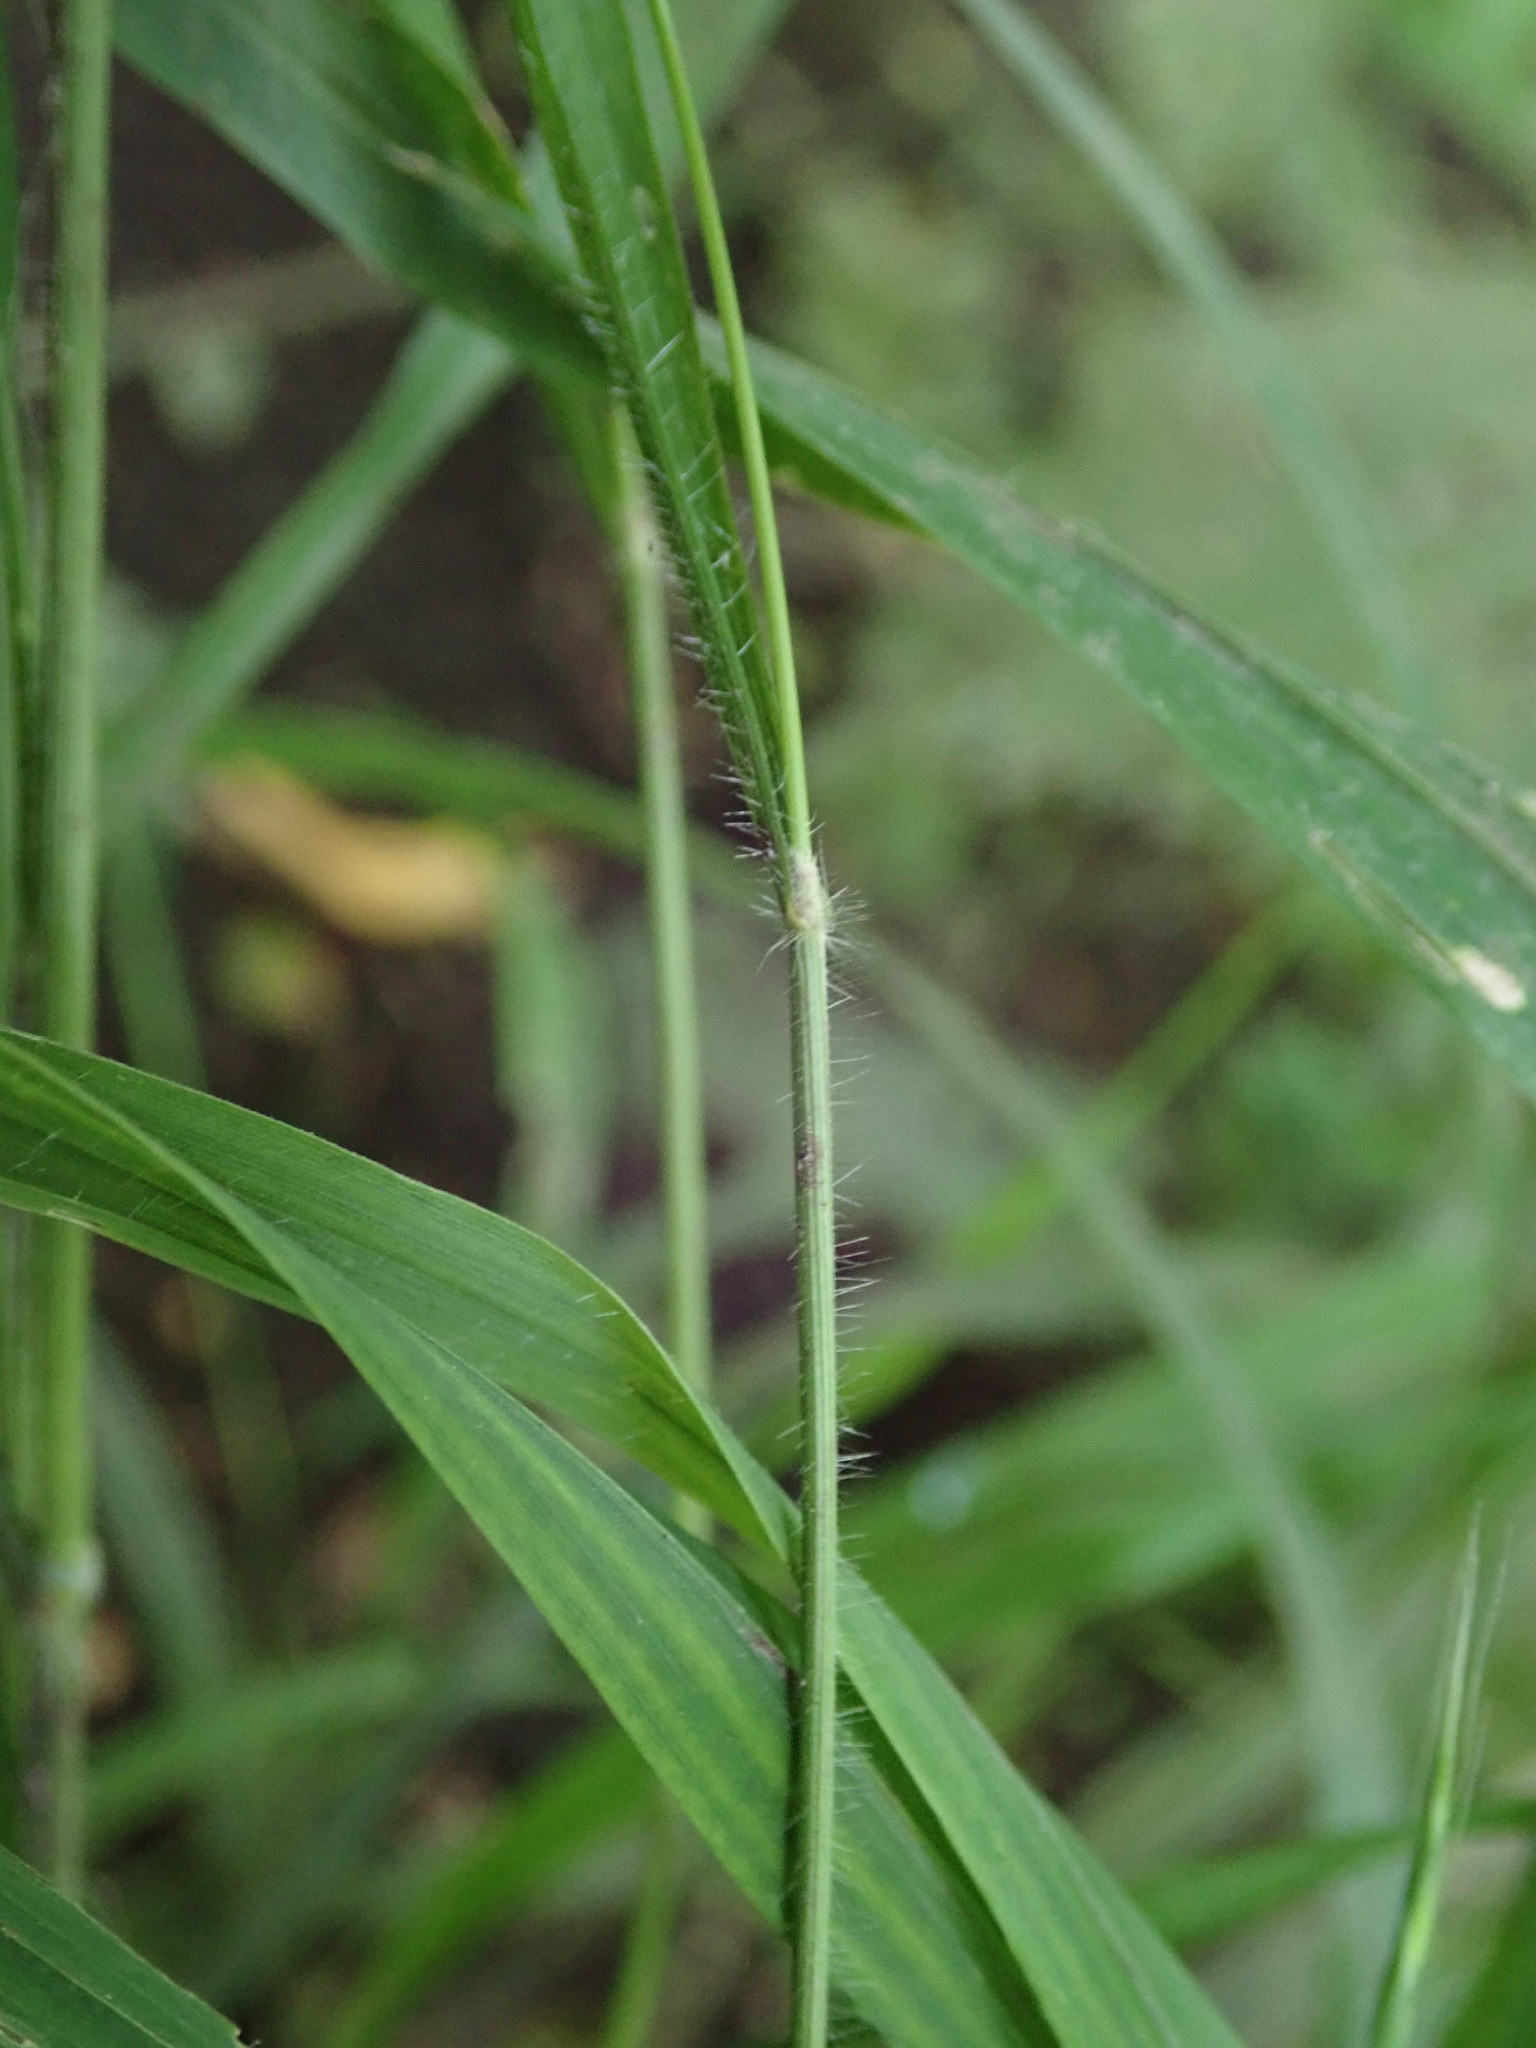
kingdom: Plantae
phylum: Tracheophyta
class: Liliopsida
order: Poales
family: Poaceae
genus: Brachypodium
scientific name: Brachypodium sylvaticum
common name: False-brome
